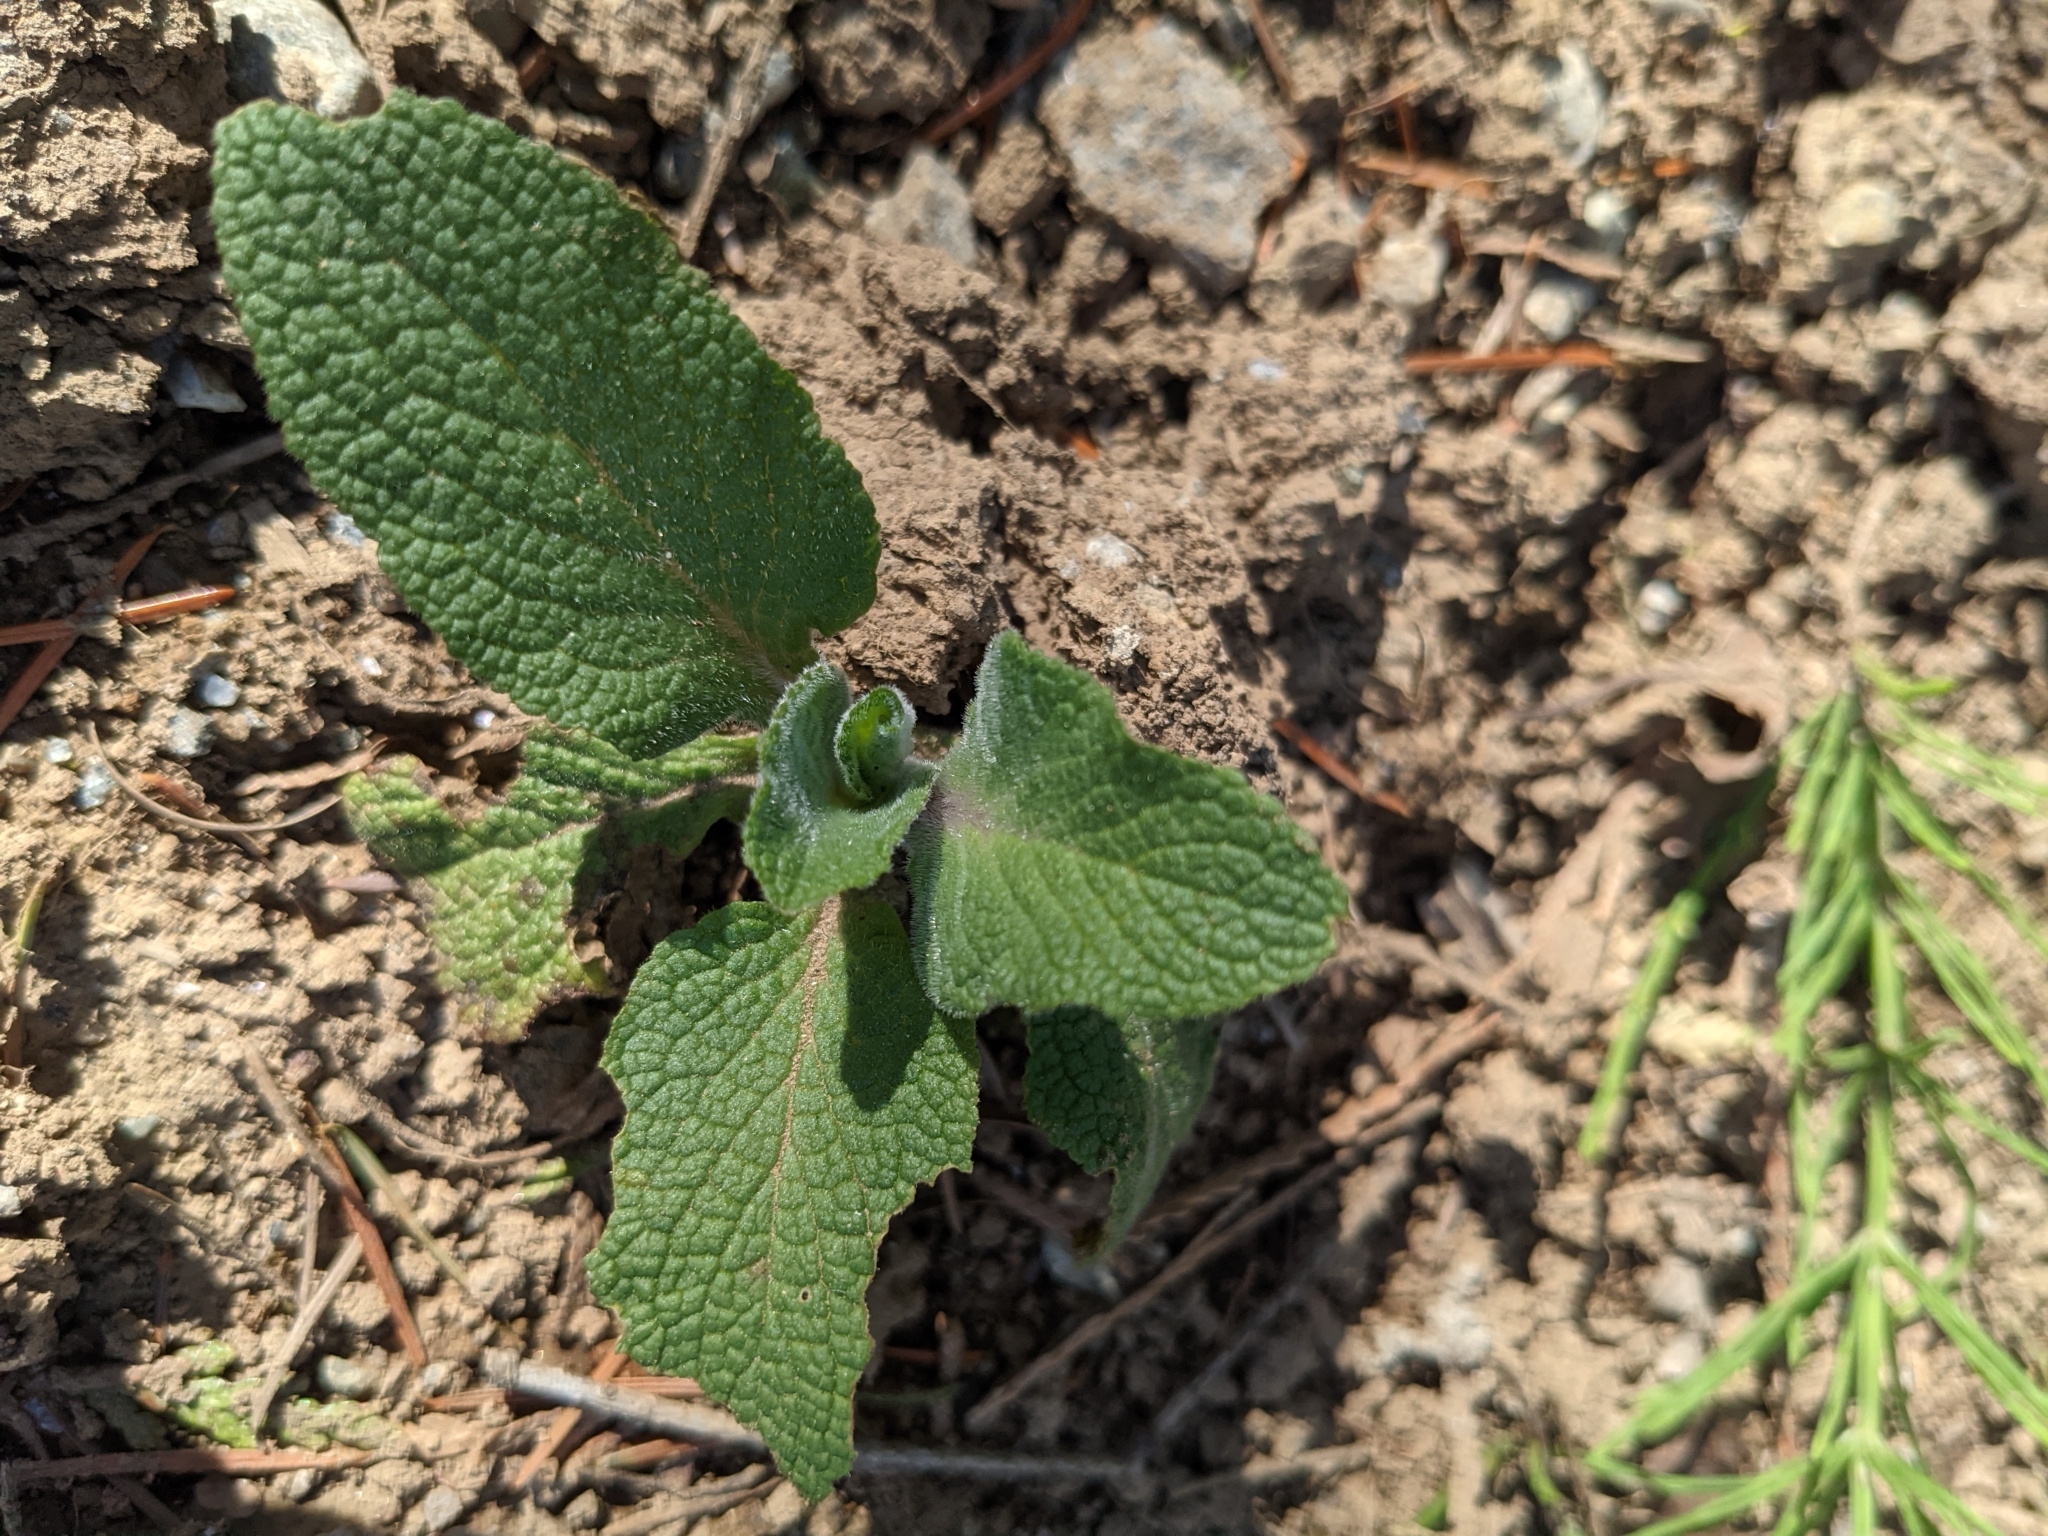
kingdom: Plantae
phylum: Tracheophyta
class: Magnoliopsida
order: Lamiales
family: Plantaginaceae
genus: Digitalis
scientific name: Digitalis purpurea
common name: Foxglove
